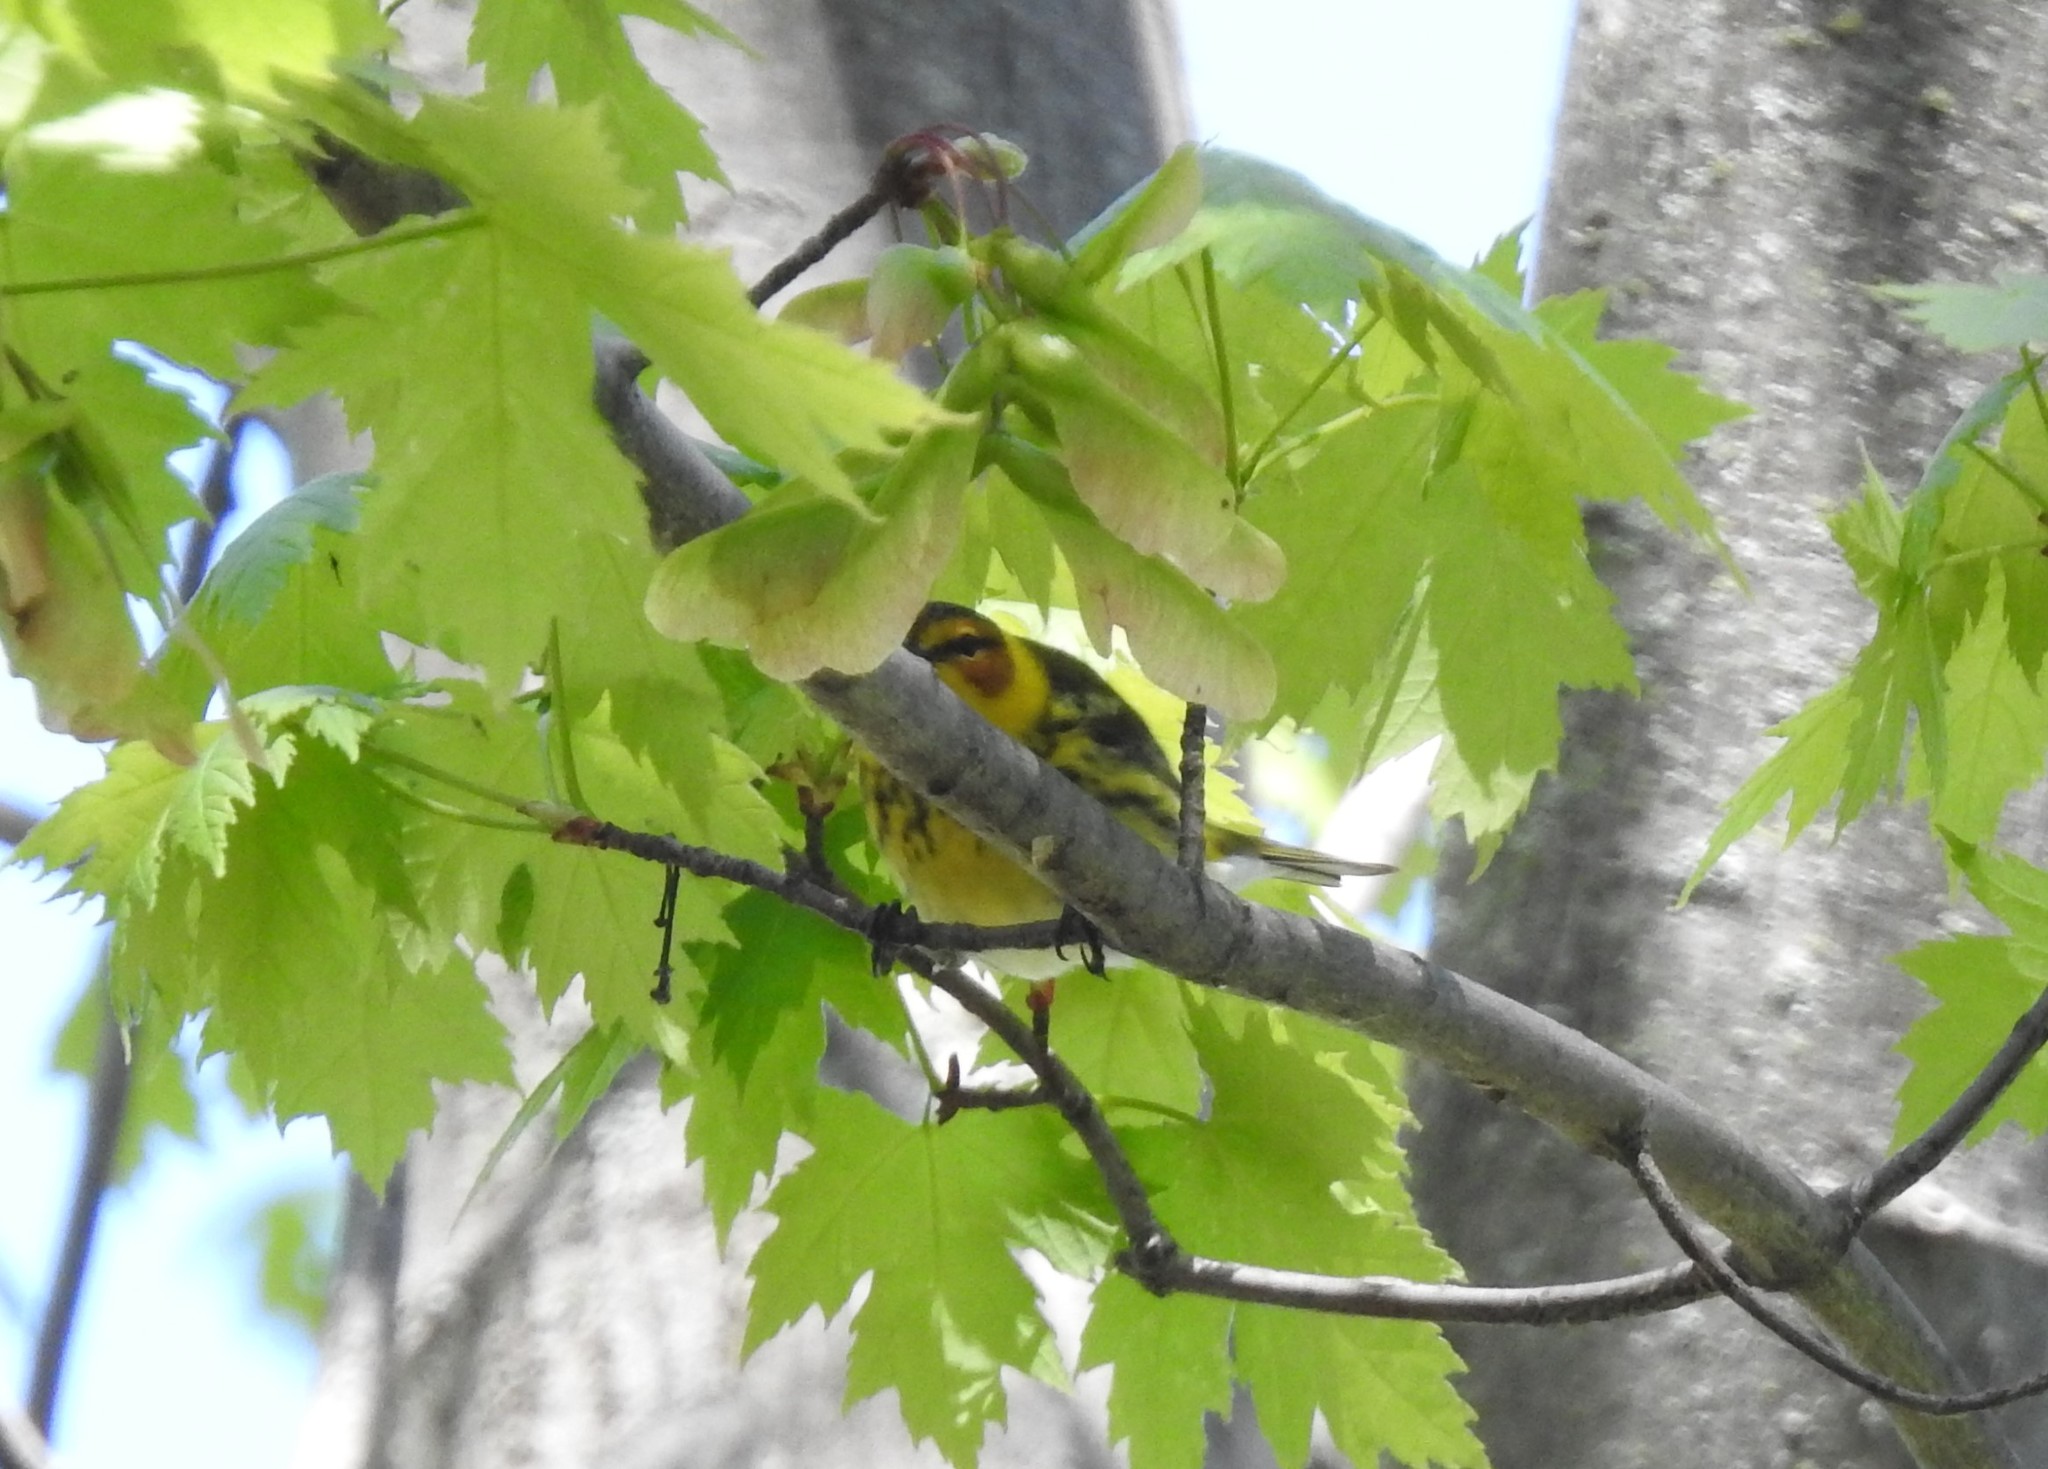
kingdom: Animalia
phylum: Chordata
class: Aves
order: Passeriformes
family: Parulidae
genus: Setophaga
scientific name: Setophaga tigrina
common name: Cape may warbler
